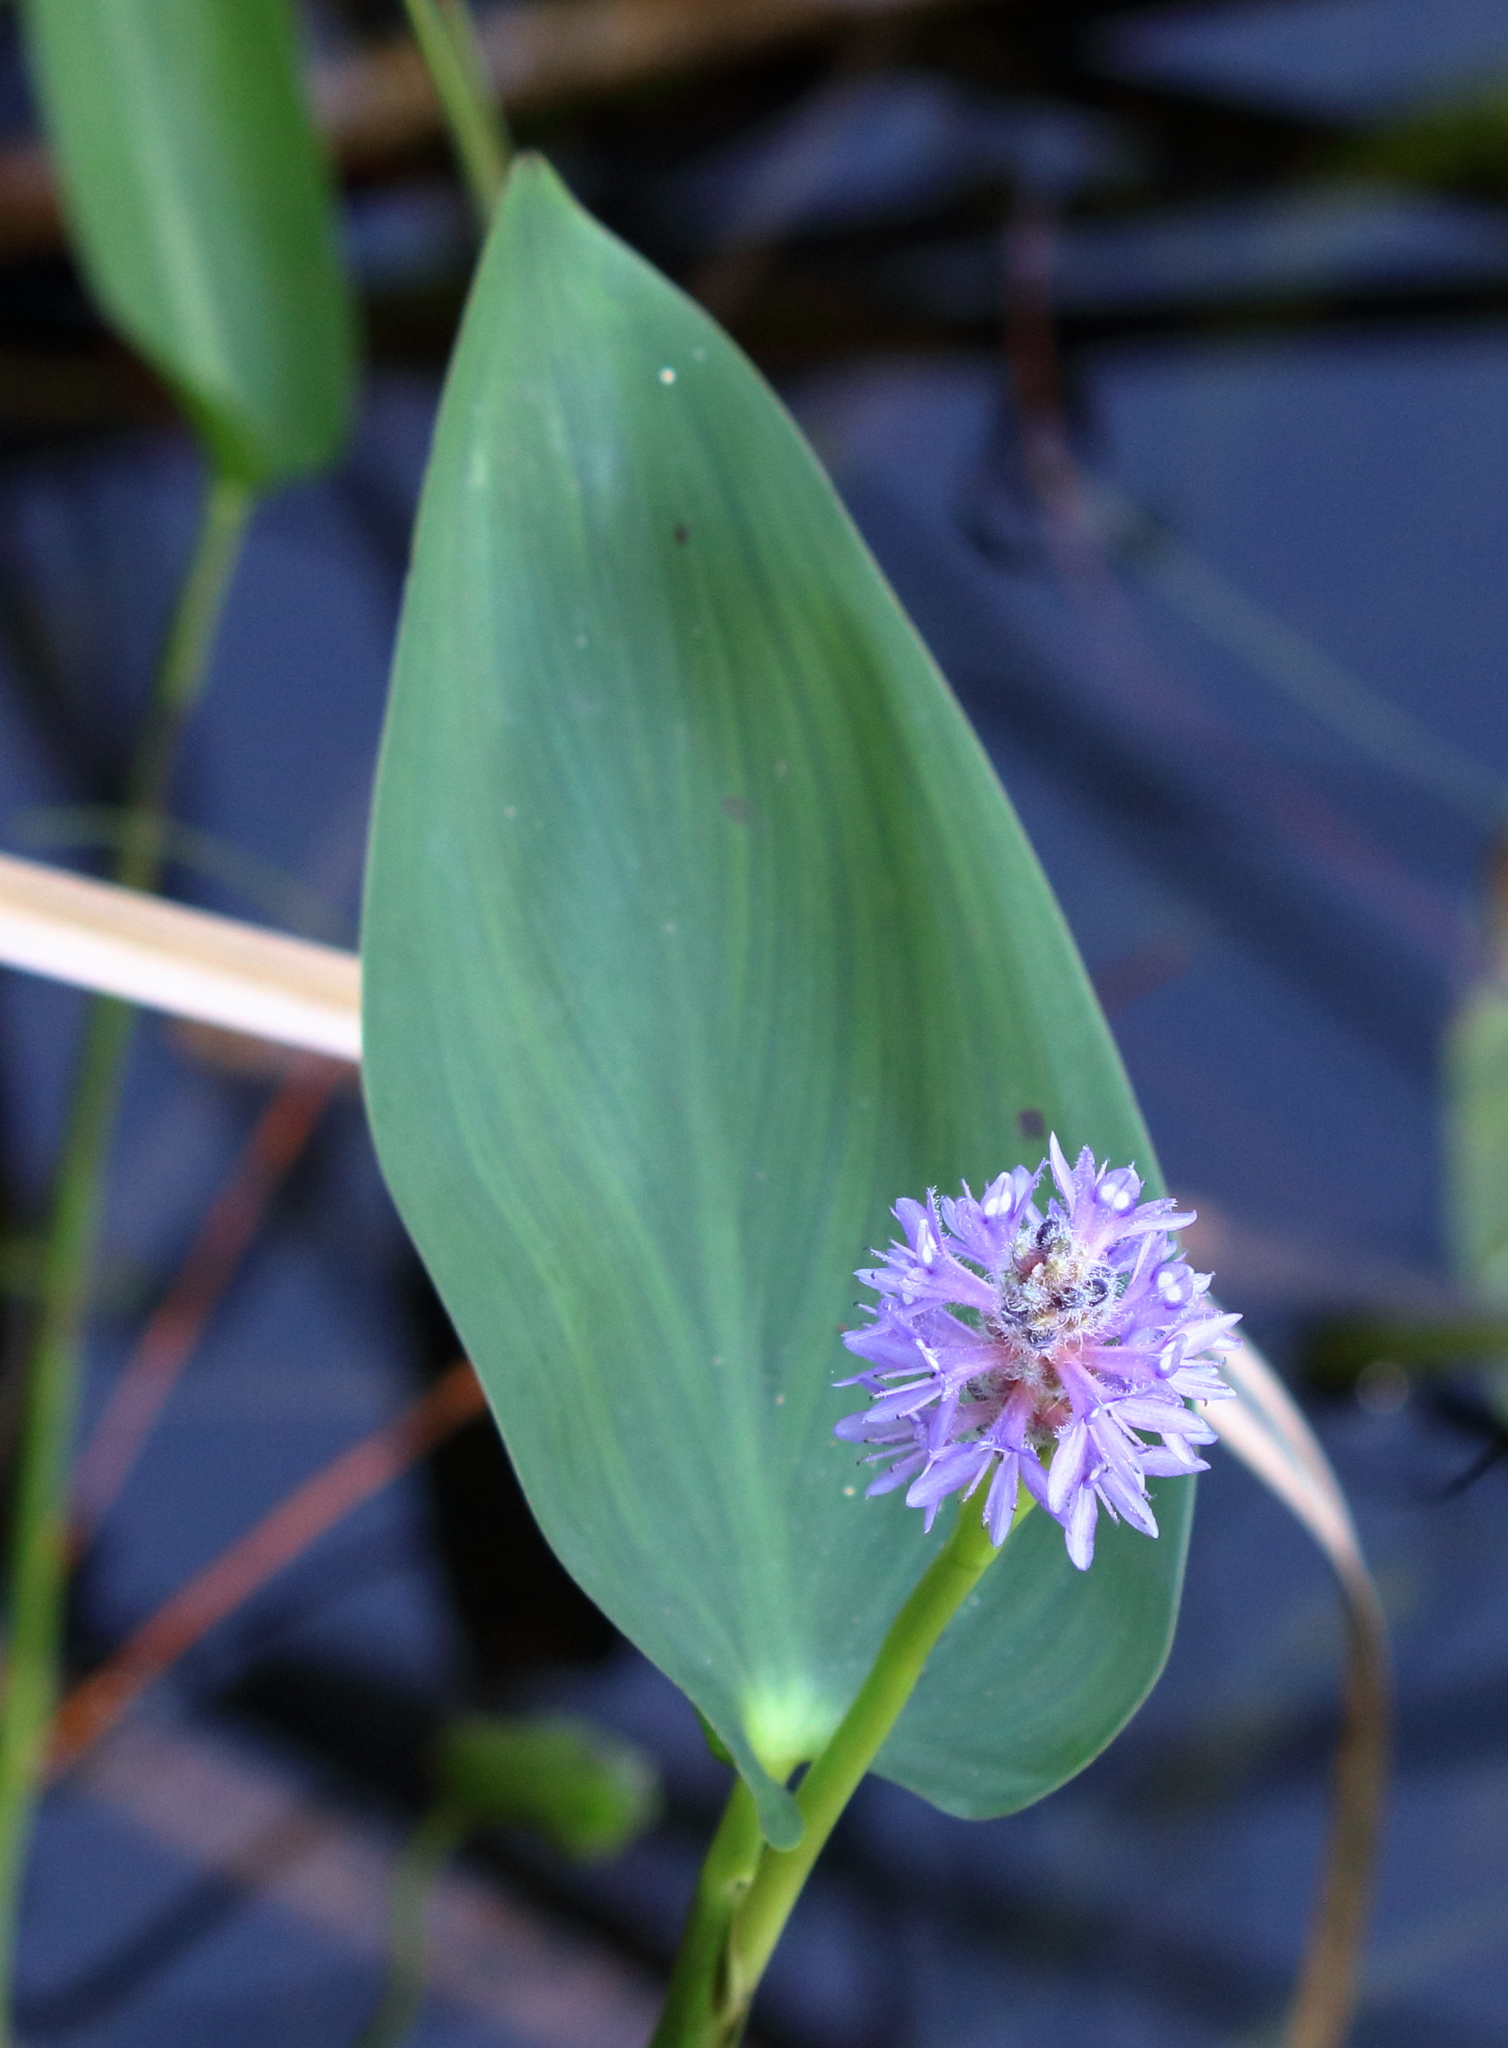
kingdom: Plantae
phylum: Tracheophyta
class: Liliopsida
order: Commelinales
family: Pontederiaceae
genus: Pontederia
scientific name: Pontederia cordata
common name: Pickerelweed
